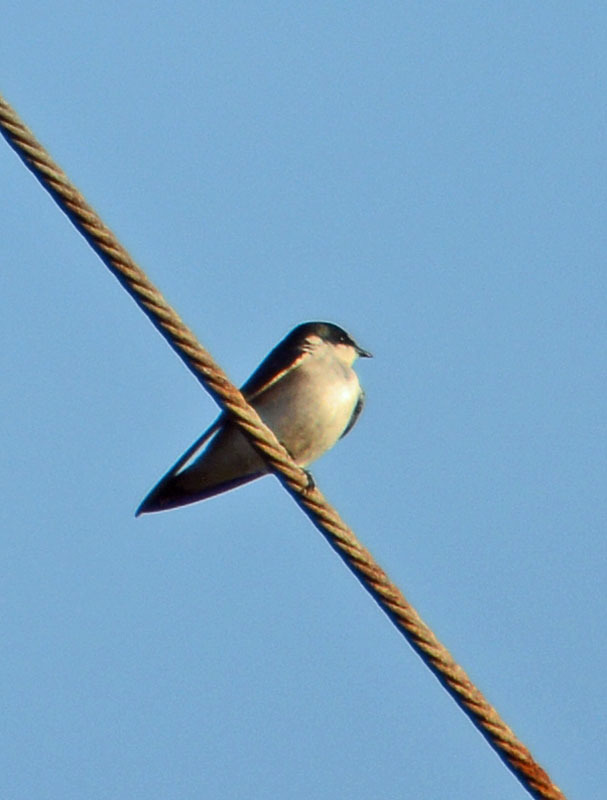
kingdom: Animalia
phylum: Chordata
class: Aves
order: Passeriformes
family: Hirundinidae
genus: Tachycineta
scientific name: Tachycineta albilinea
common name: Mangrove swallow
